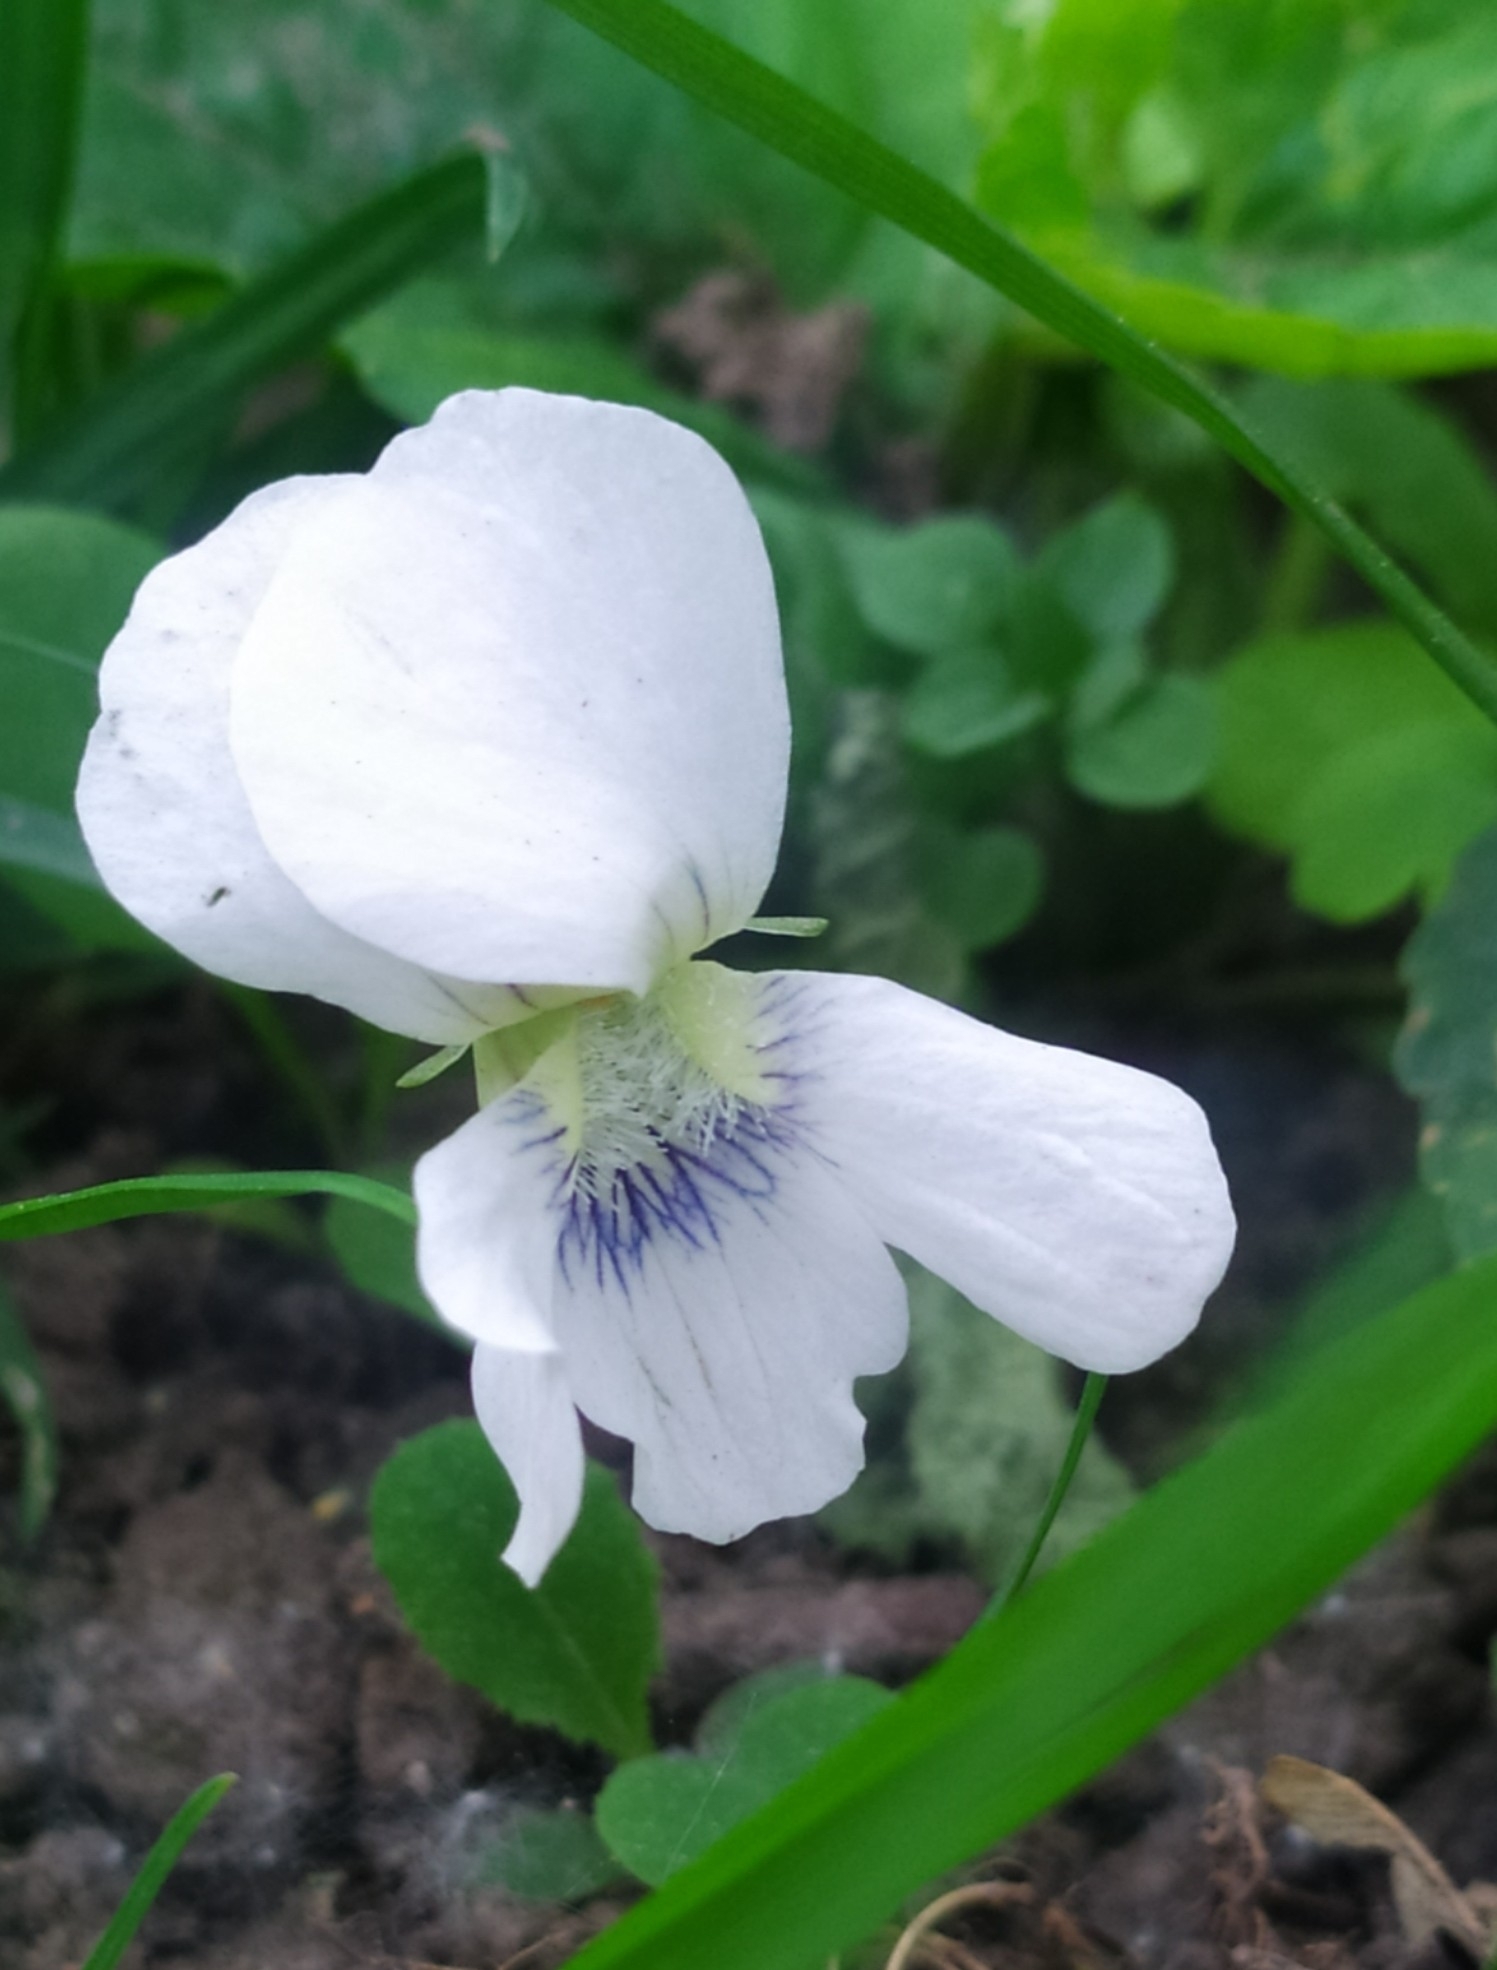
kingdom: Plantae
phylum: Tracheophyta
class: Magnoliopsida
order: Malpighiales
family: Violaceae
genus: Viola
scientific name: Viola sororia
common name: Dooryard violet
